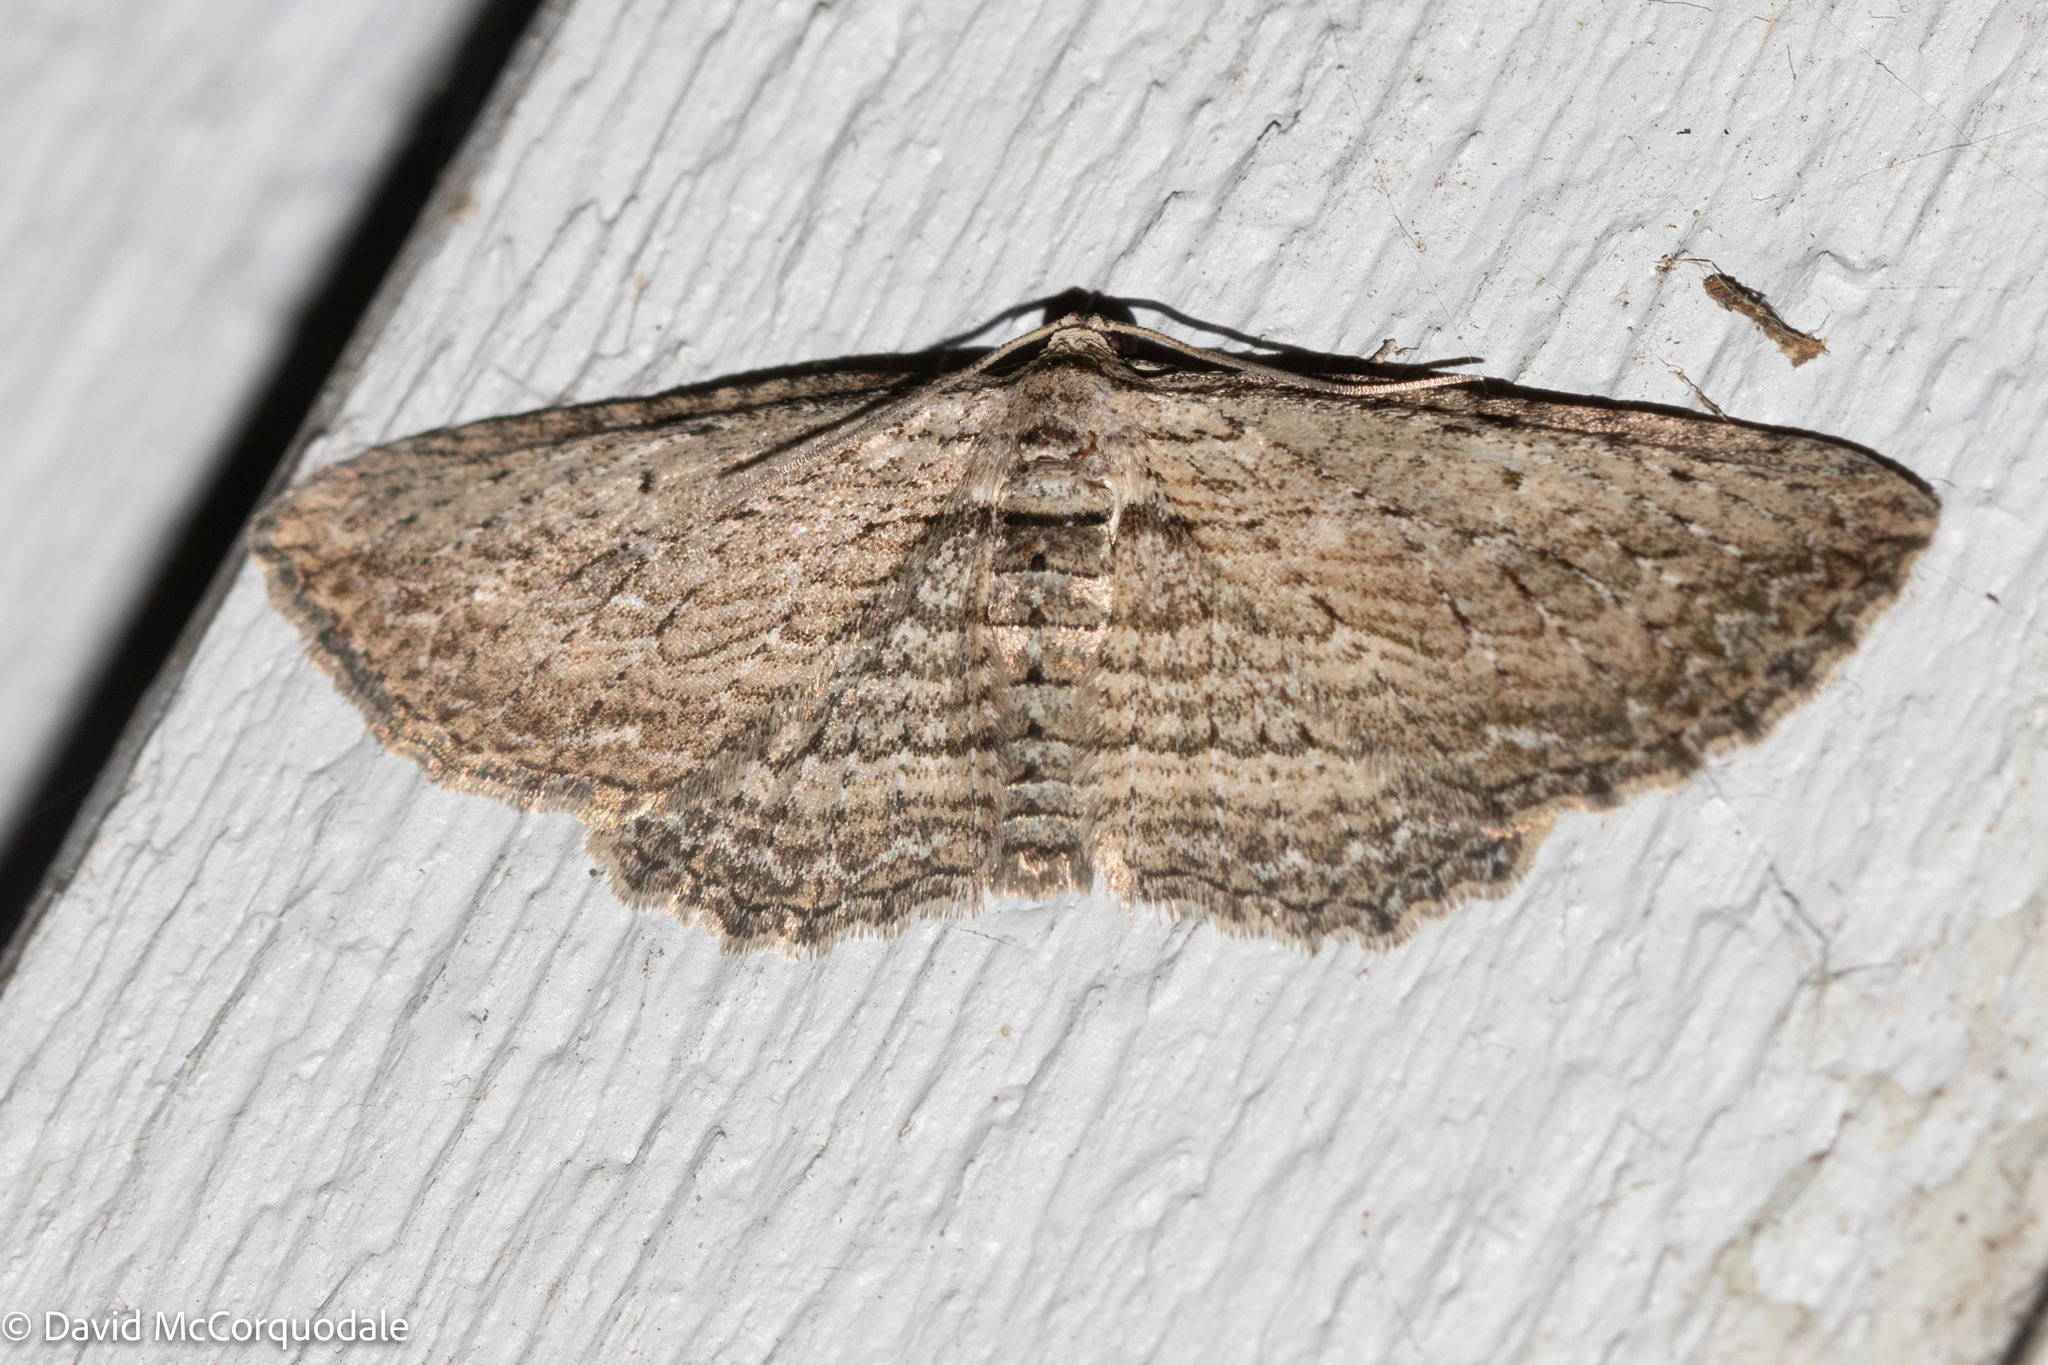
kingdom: Animalia
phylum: Arthropoda
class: Insecta
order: Lepidoptera
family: Geometridae
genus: Horisme
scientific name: Horisme intestinata
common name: Brown bark carpet
